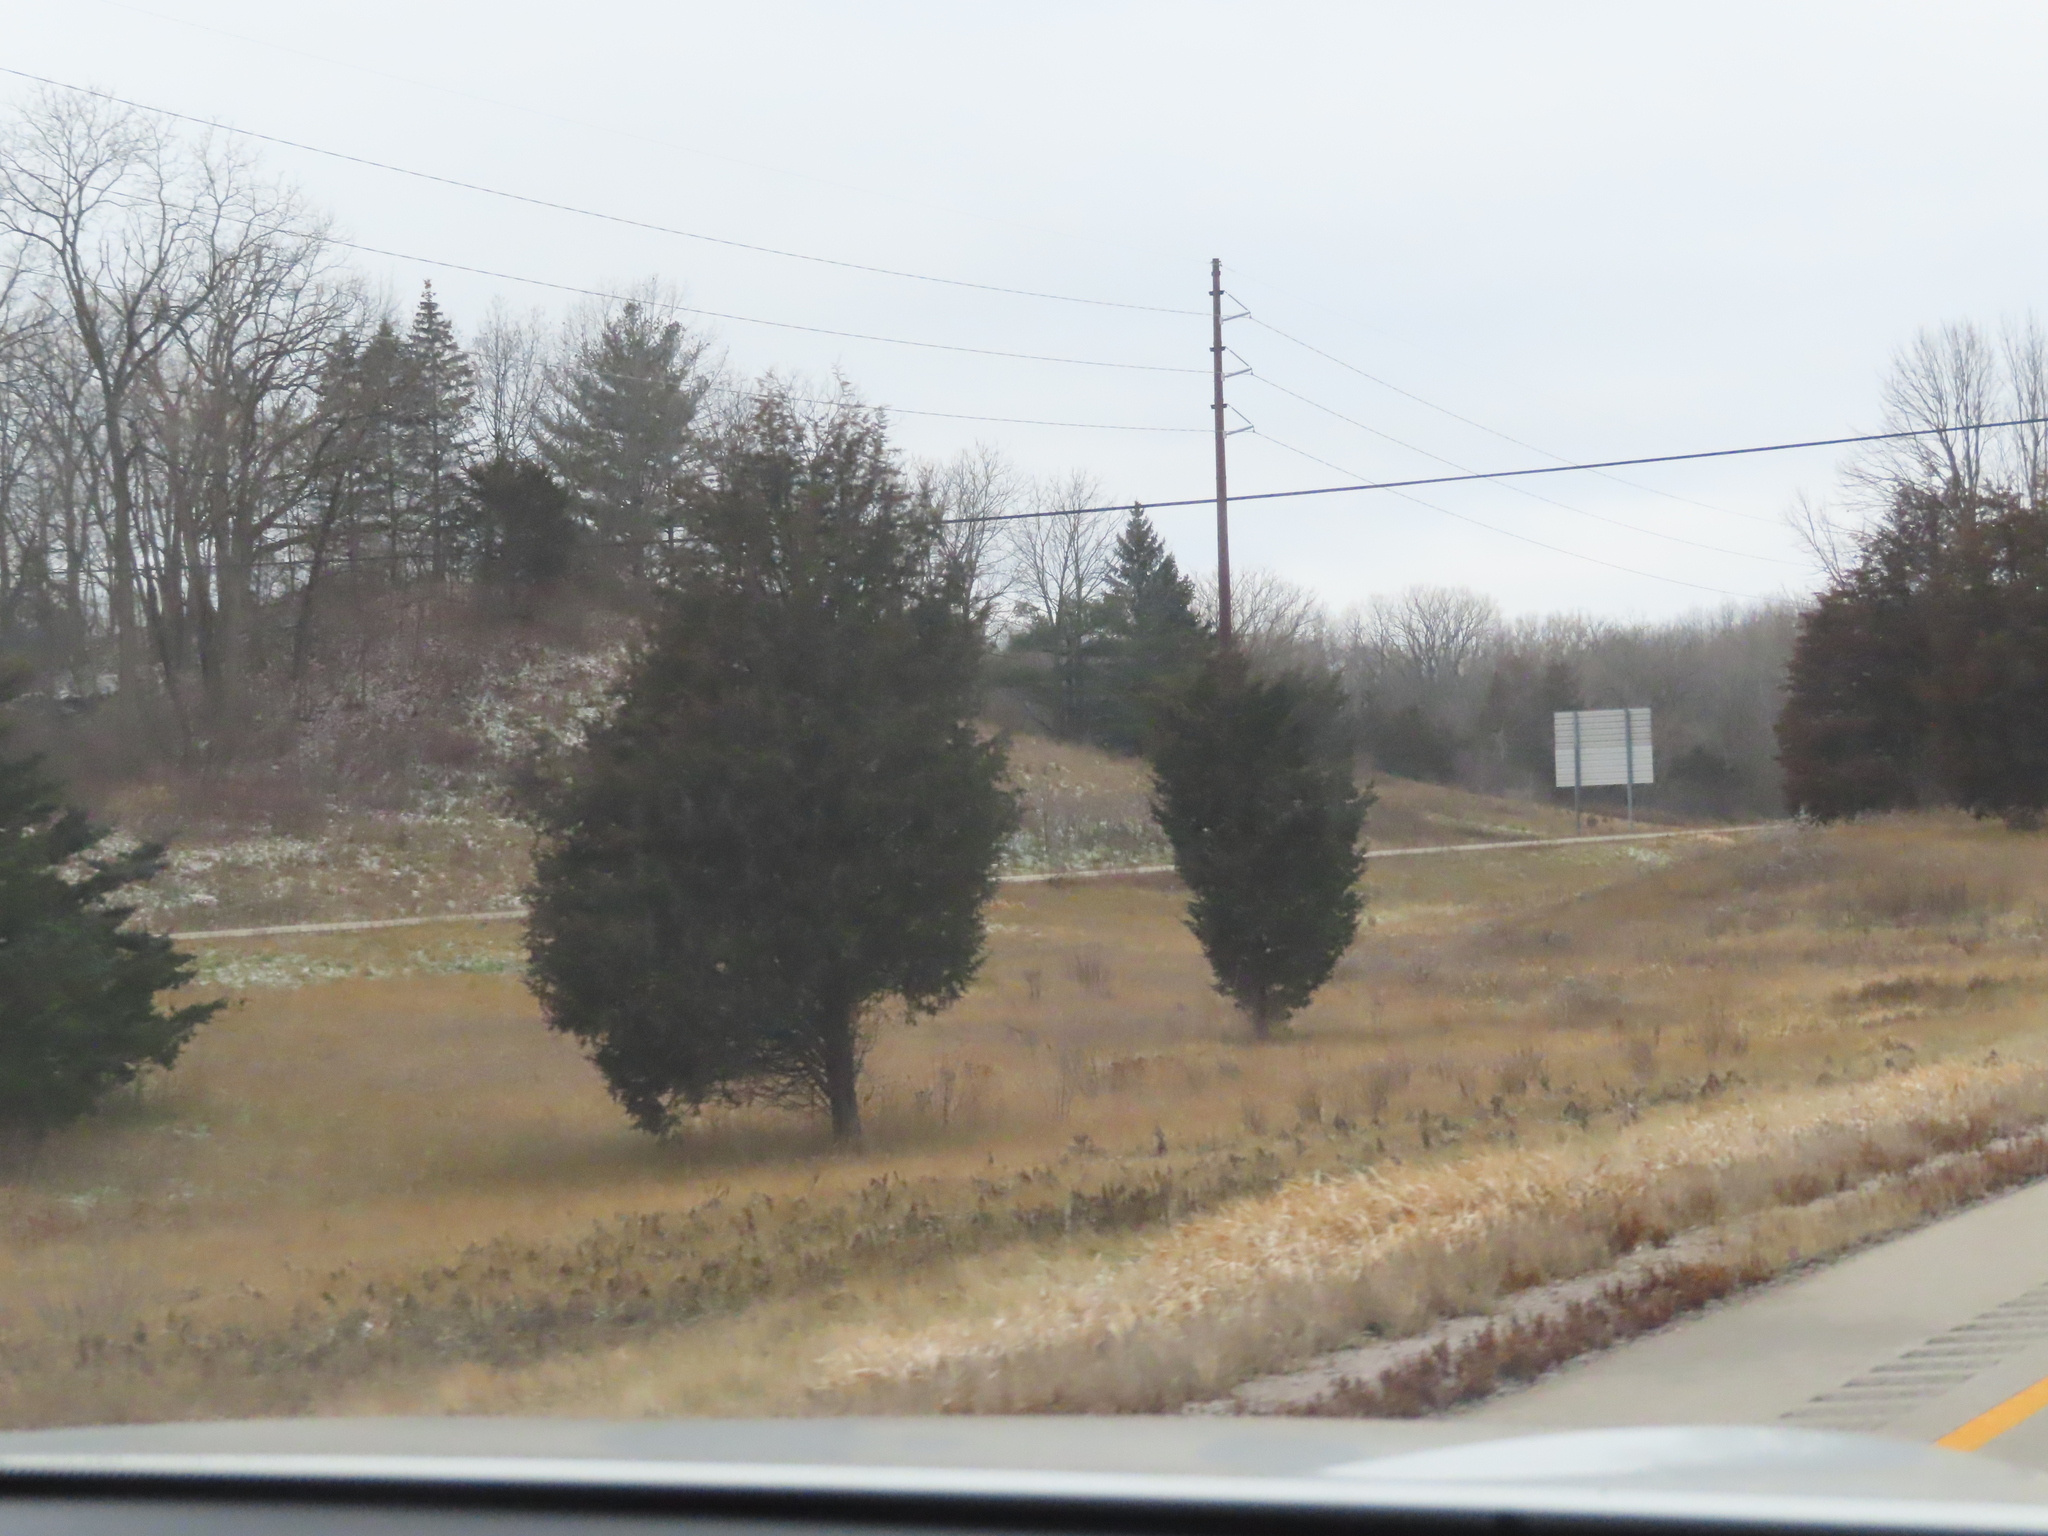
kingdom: Plantae
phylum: Tracheophyta
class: Pinopsida
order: Pinales
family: Cupressaceae
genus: Juniperus
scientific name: Juniperus virginiana
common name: Red juniper
